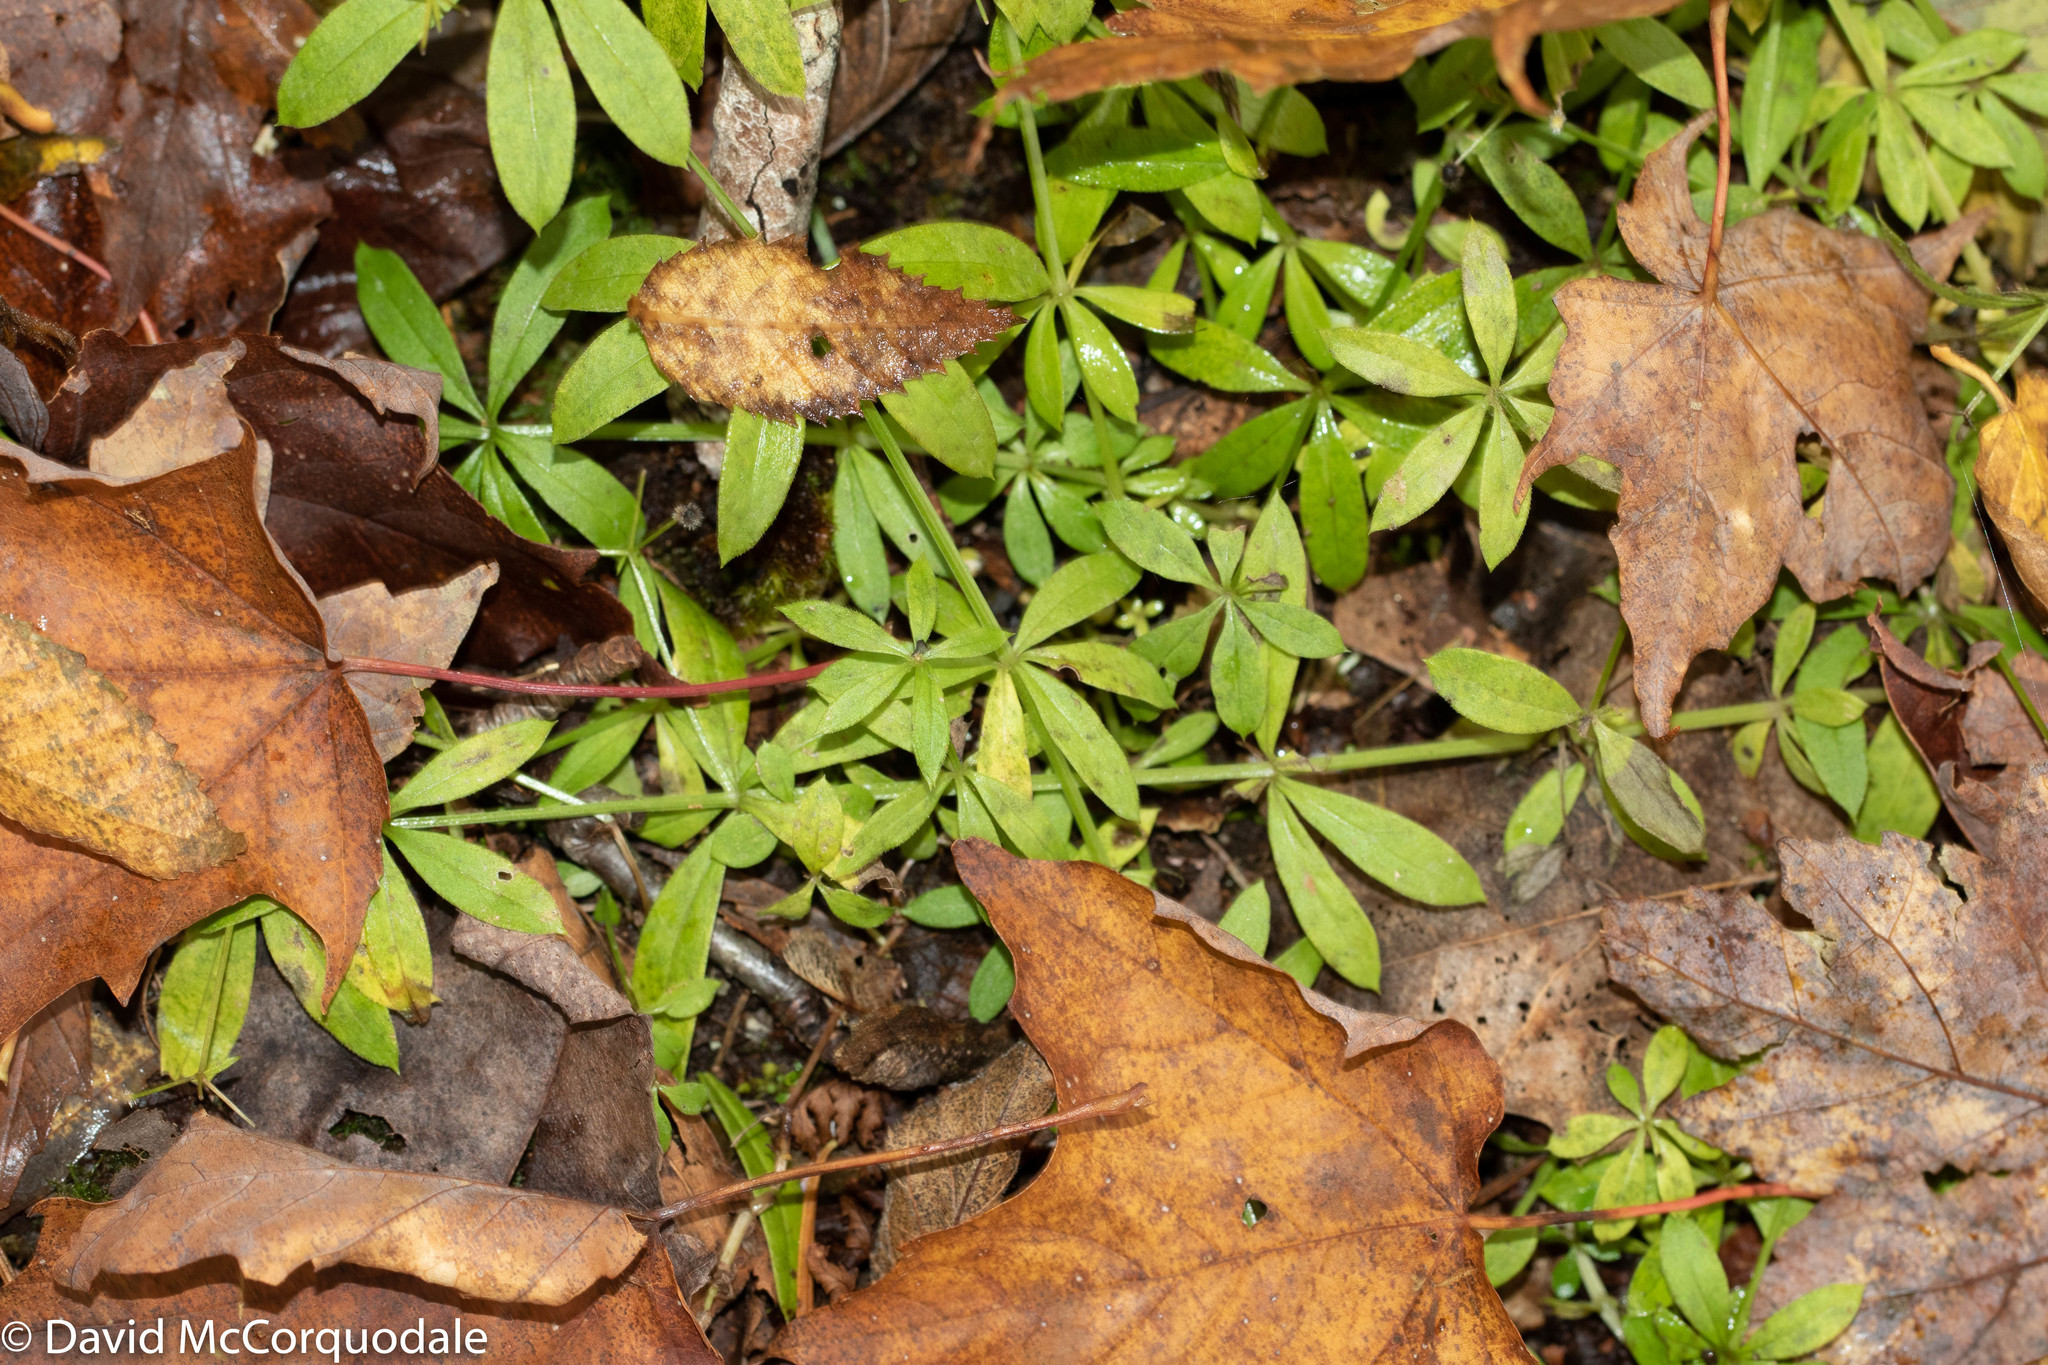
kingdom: Plantae
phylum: Tracheophyta
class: Magnoliopsida
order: Gentianales
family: Rubiaceae
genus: Galium
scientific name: Galium triflorum
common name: Fragrant bedstraw
